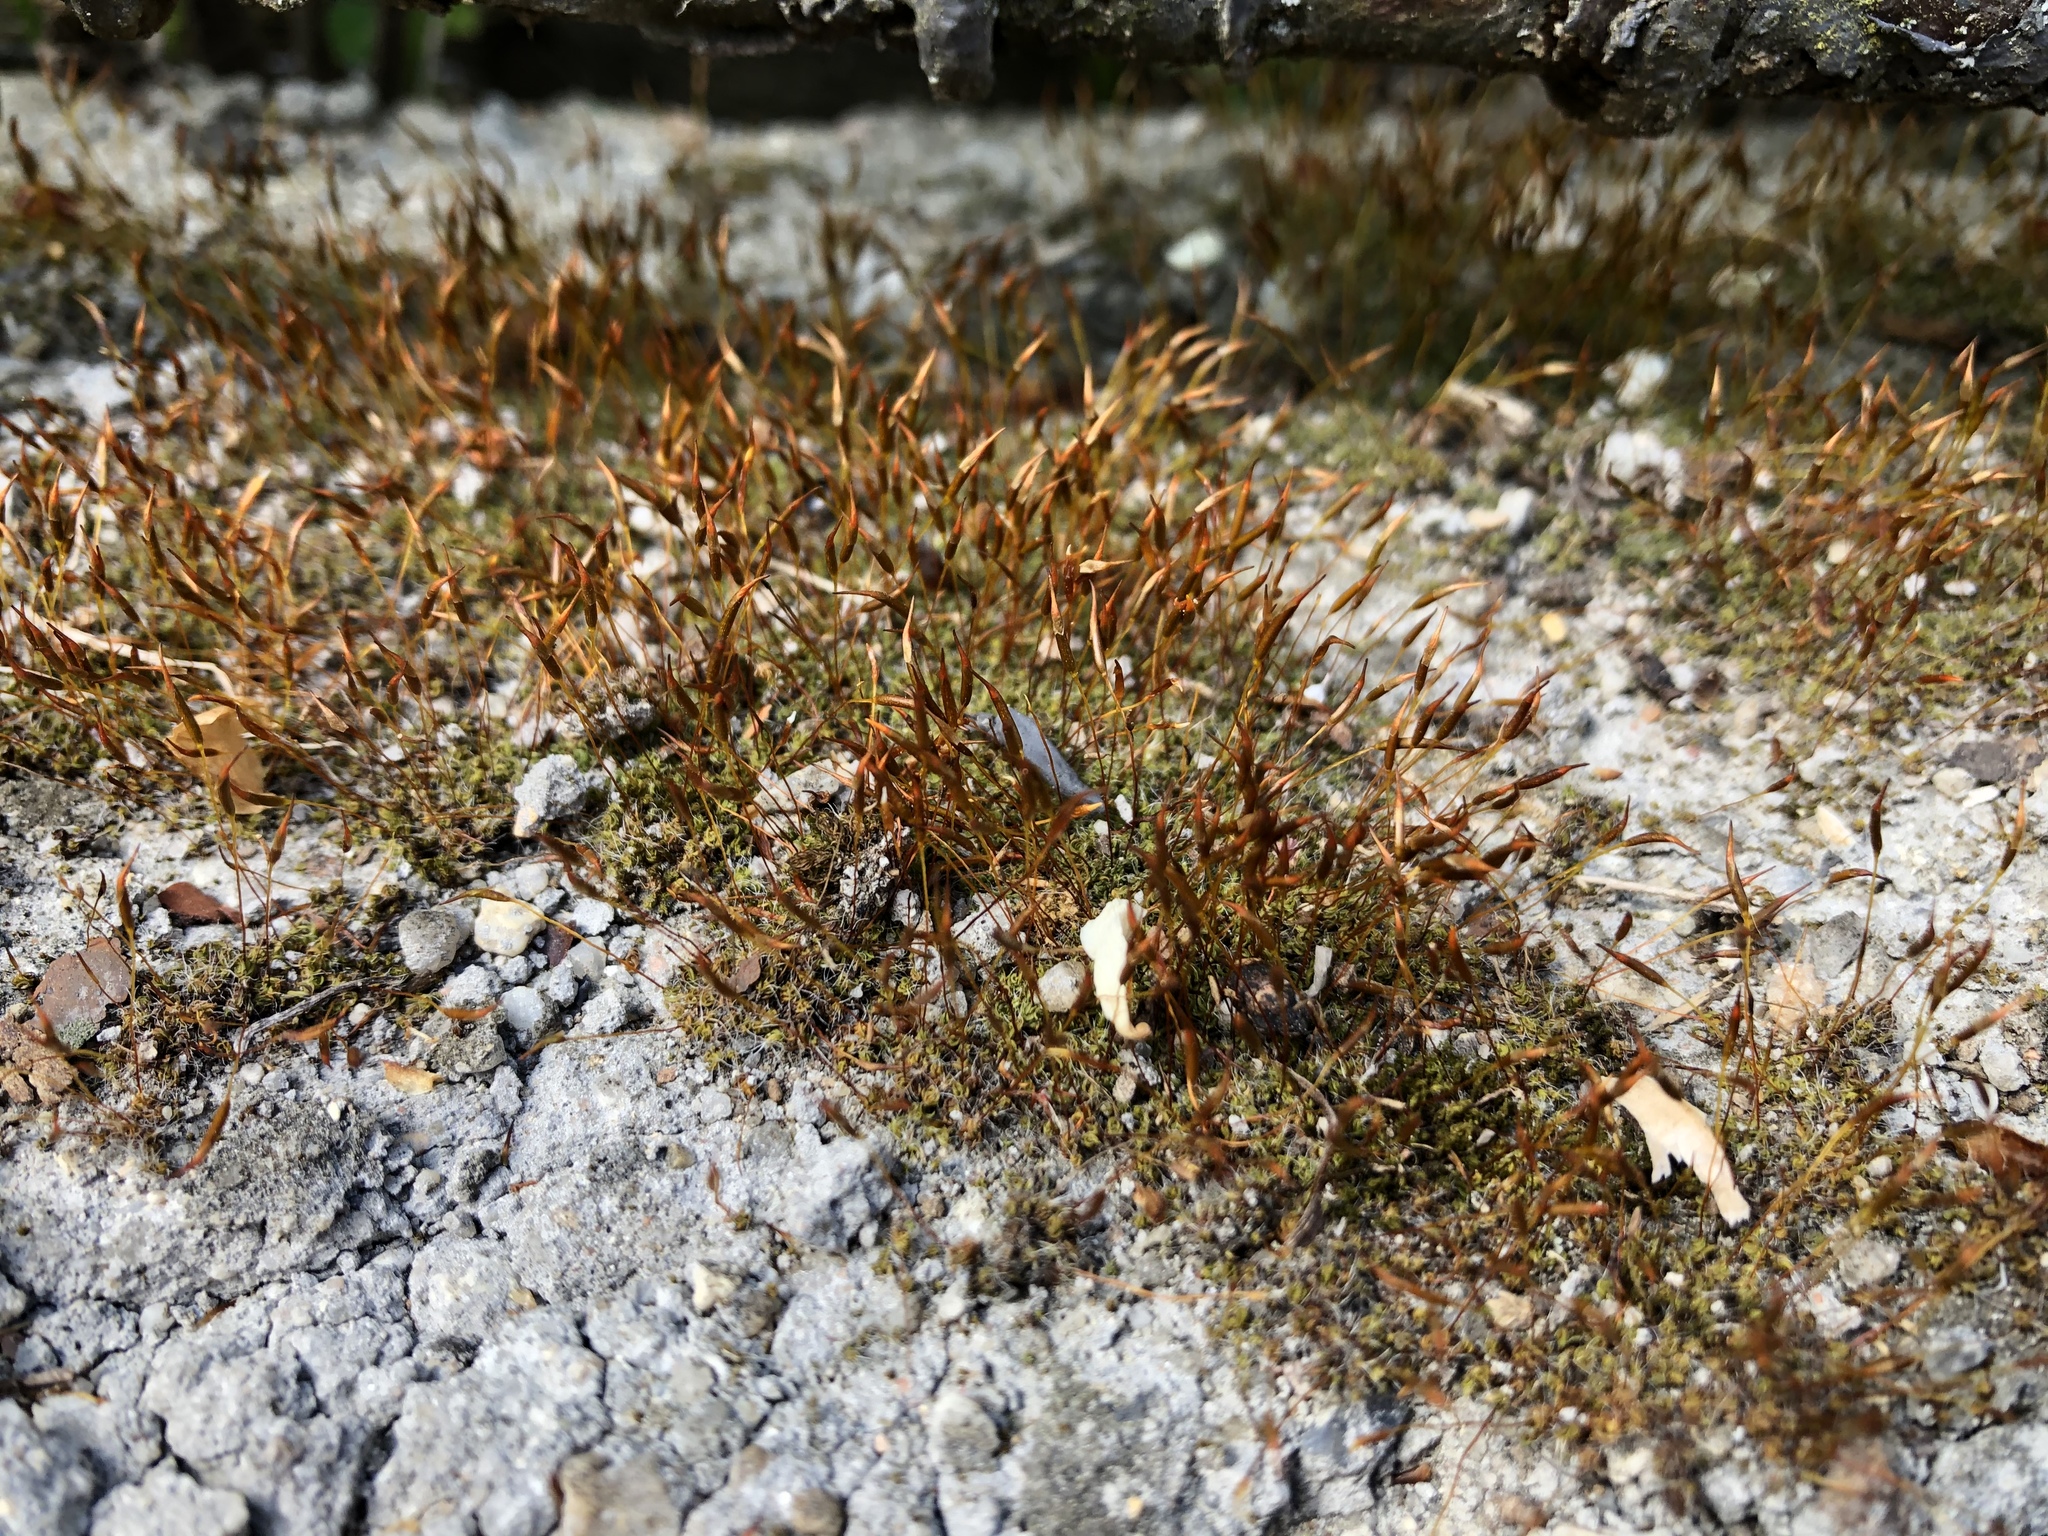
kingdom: Plantae
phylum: Bryophyta
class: Bryopsida
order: Pottiales
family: Pottiaceae
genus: Tortula
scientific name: Tortula muralis
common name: Wall screw-moss
